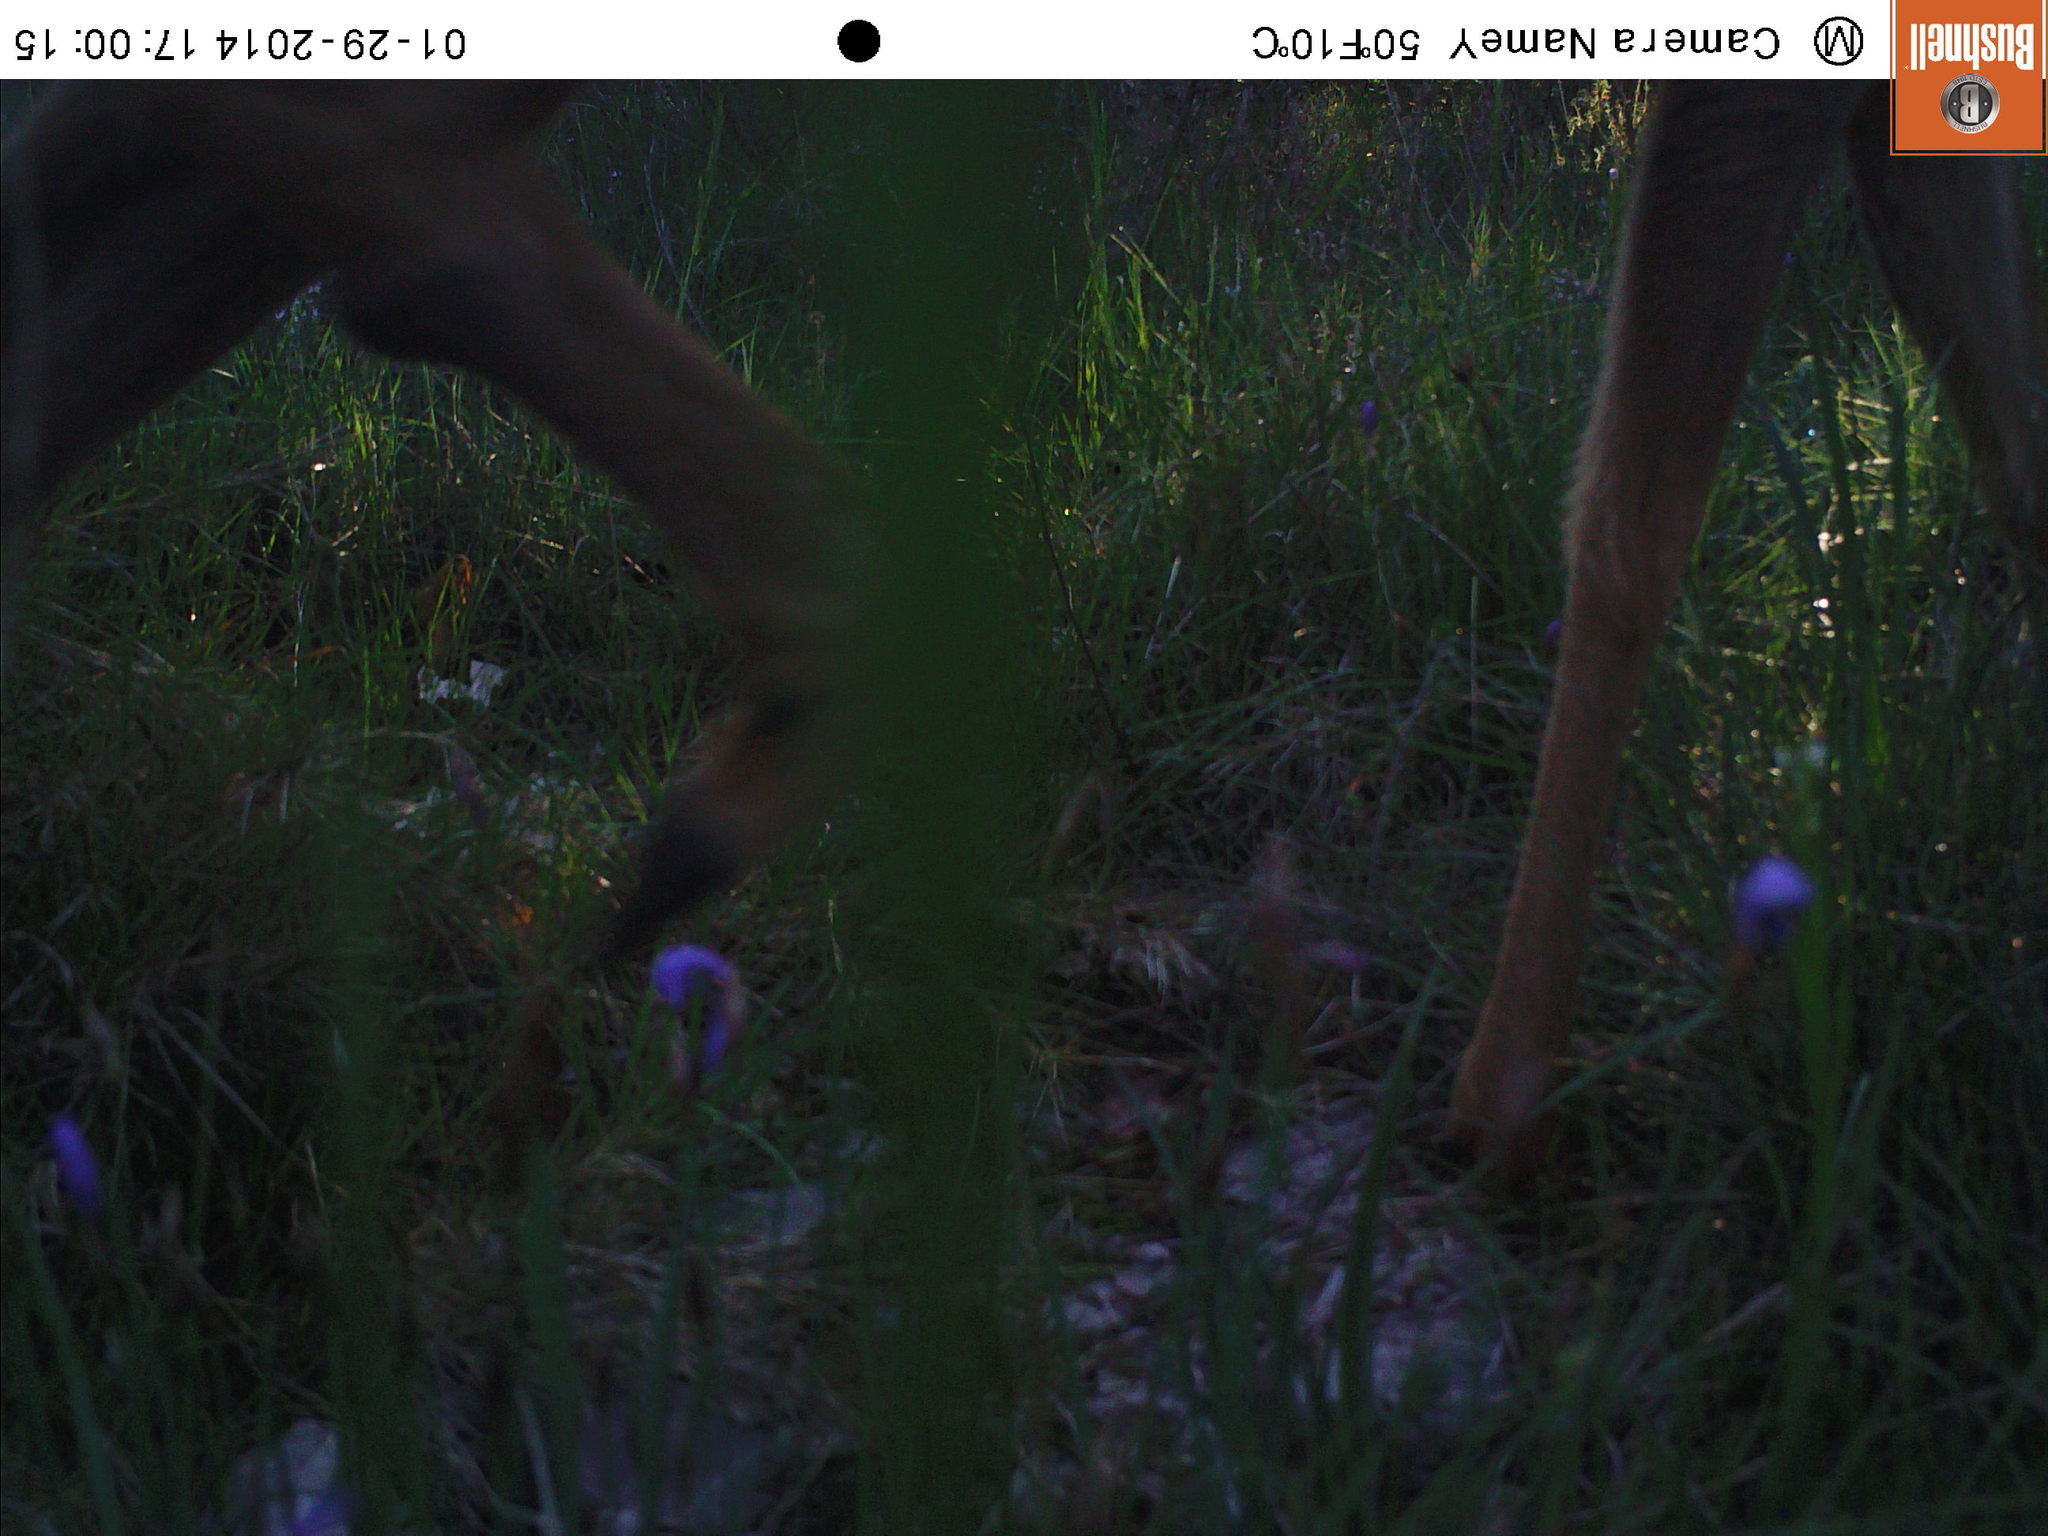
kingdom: Animalia
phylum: Chordata
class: Mammalia
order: Artiodactyla
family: Cervidae
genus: Capreolus
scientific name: Capreolus capreolus
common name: Western roe deer
